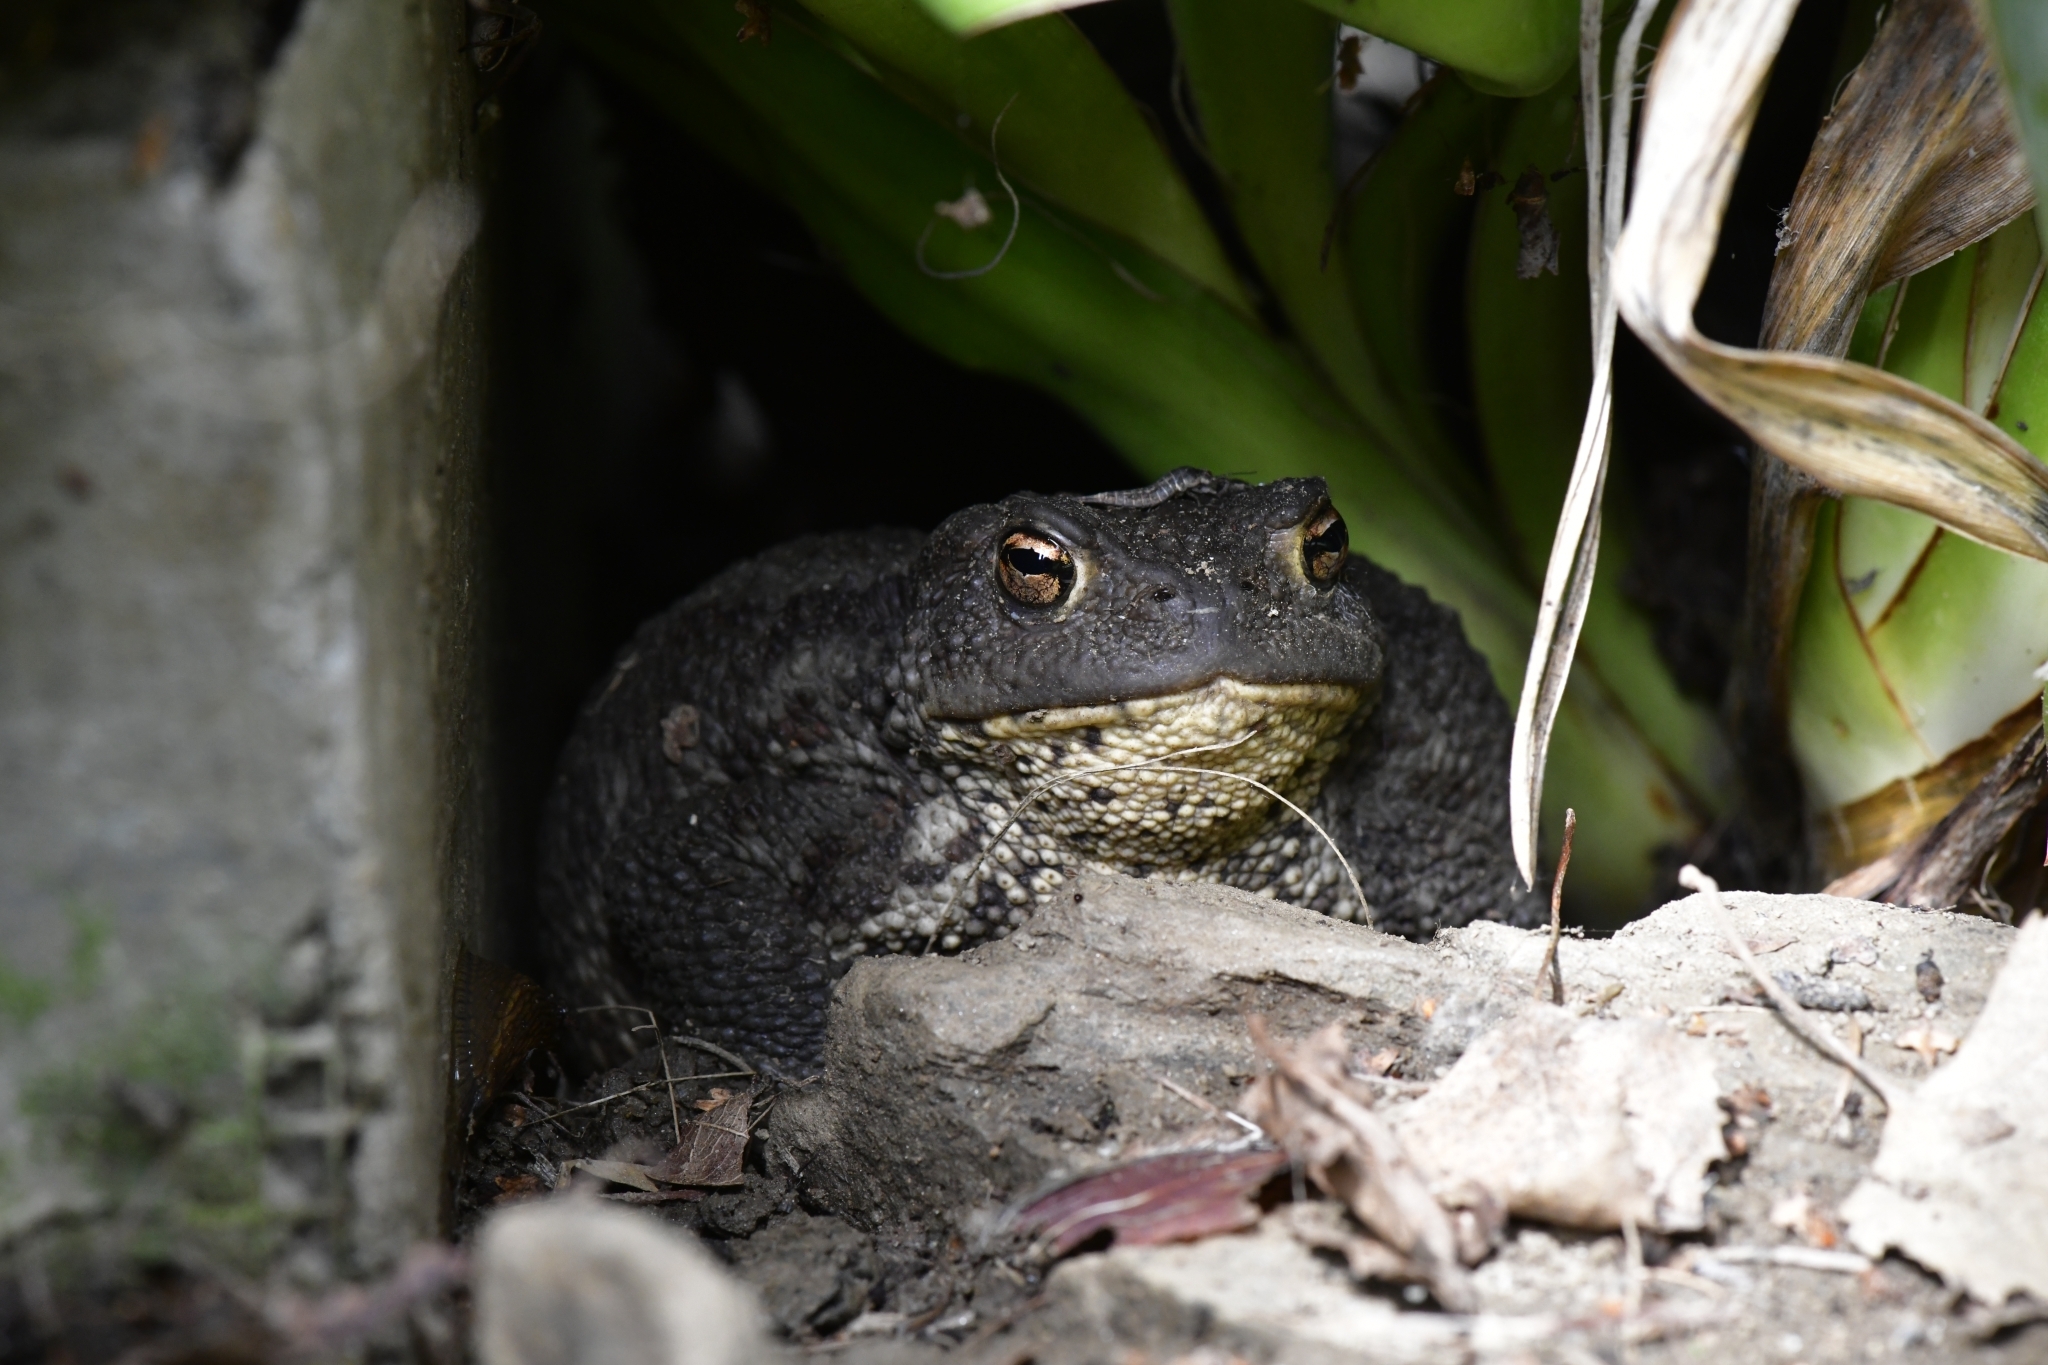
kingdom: Animalia
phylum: Chordata
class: Amphibia
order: Anura
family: Bufonidae
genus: Bufo
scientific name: Bufo bufo
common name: Common toad
